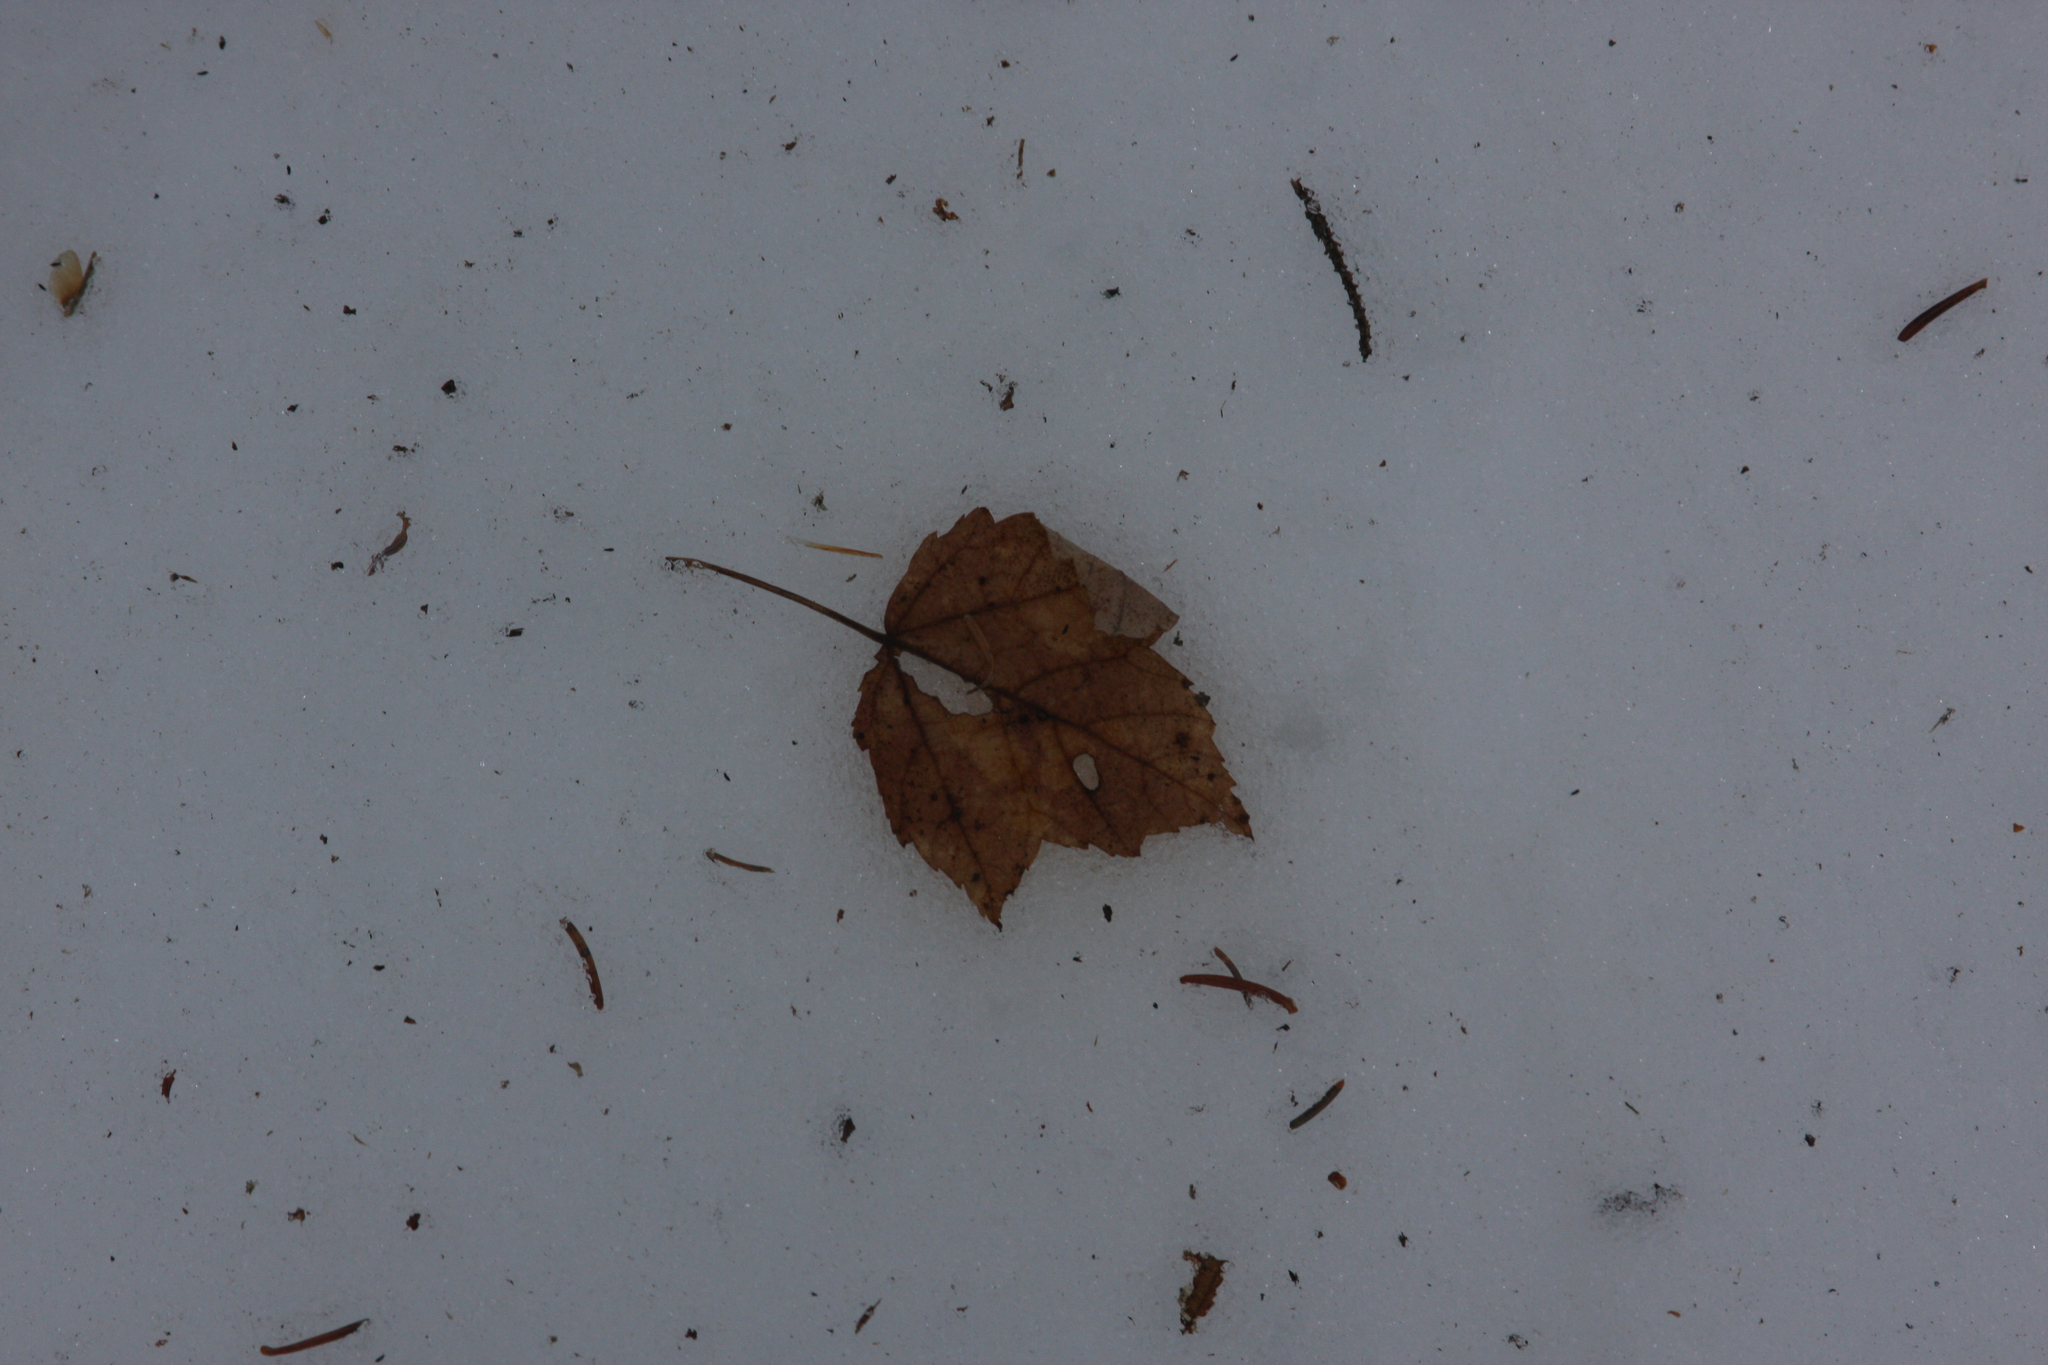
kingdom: Plantae
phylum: Tracheophyta
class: Magnoliopsida
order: Sapindales
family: Sapindaceae
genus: Acer
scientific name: Acer rubrum
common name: Red maple
